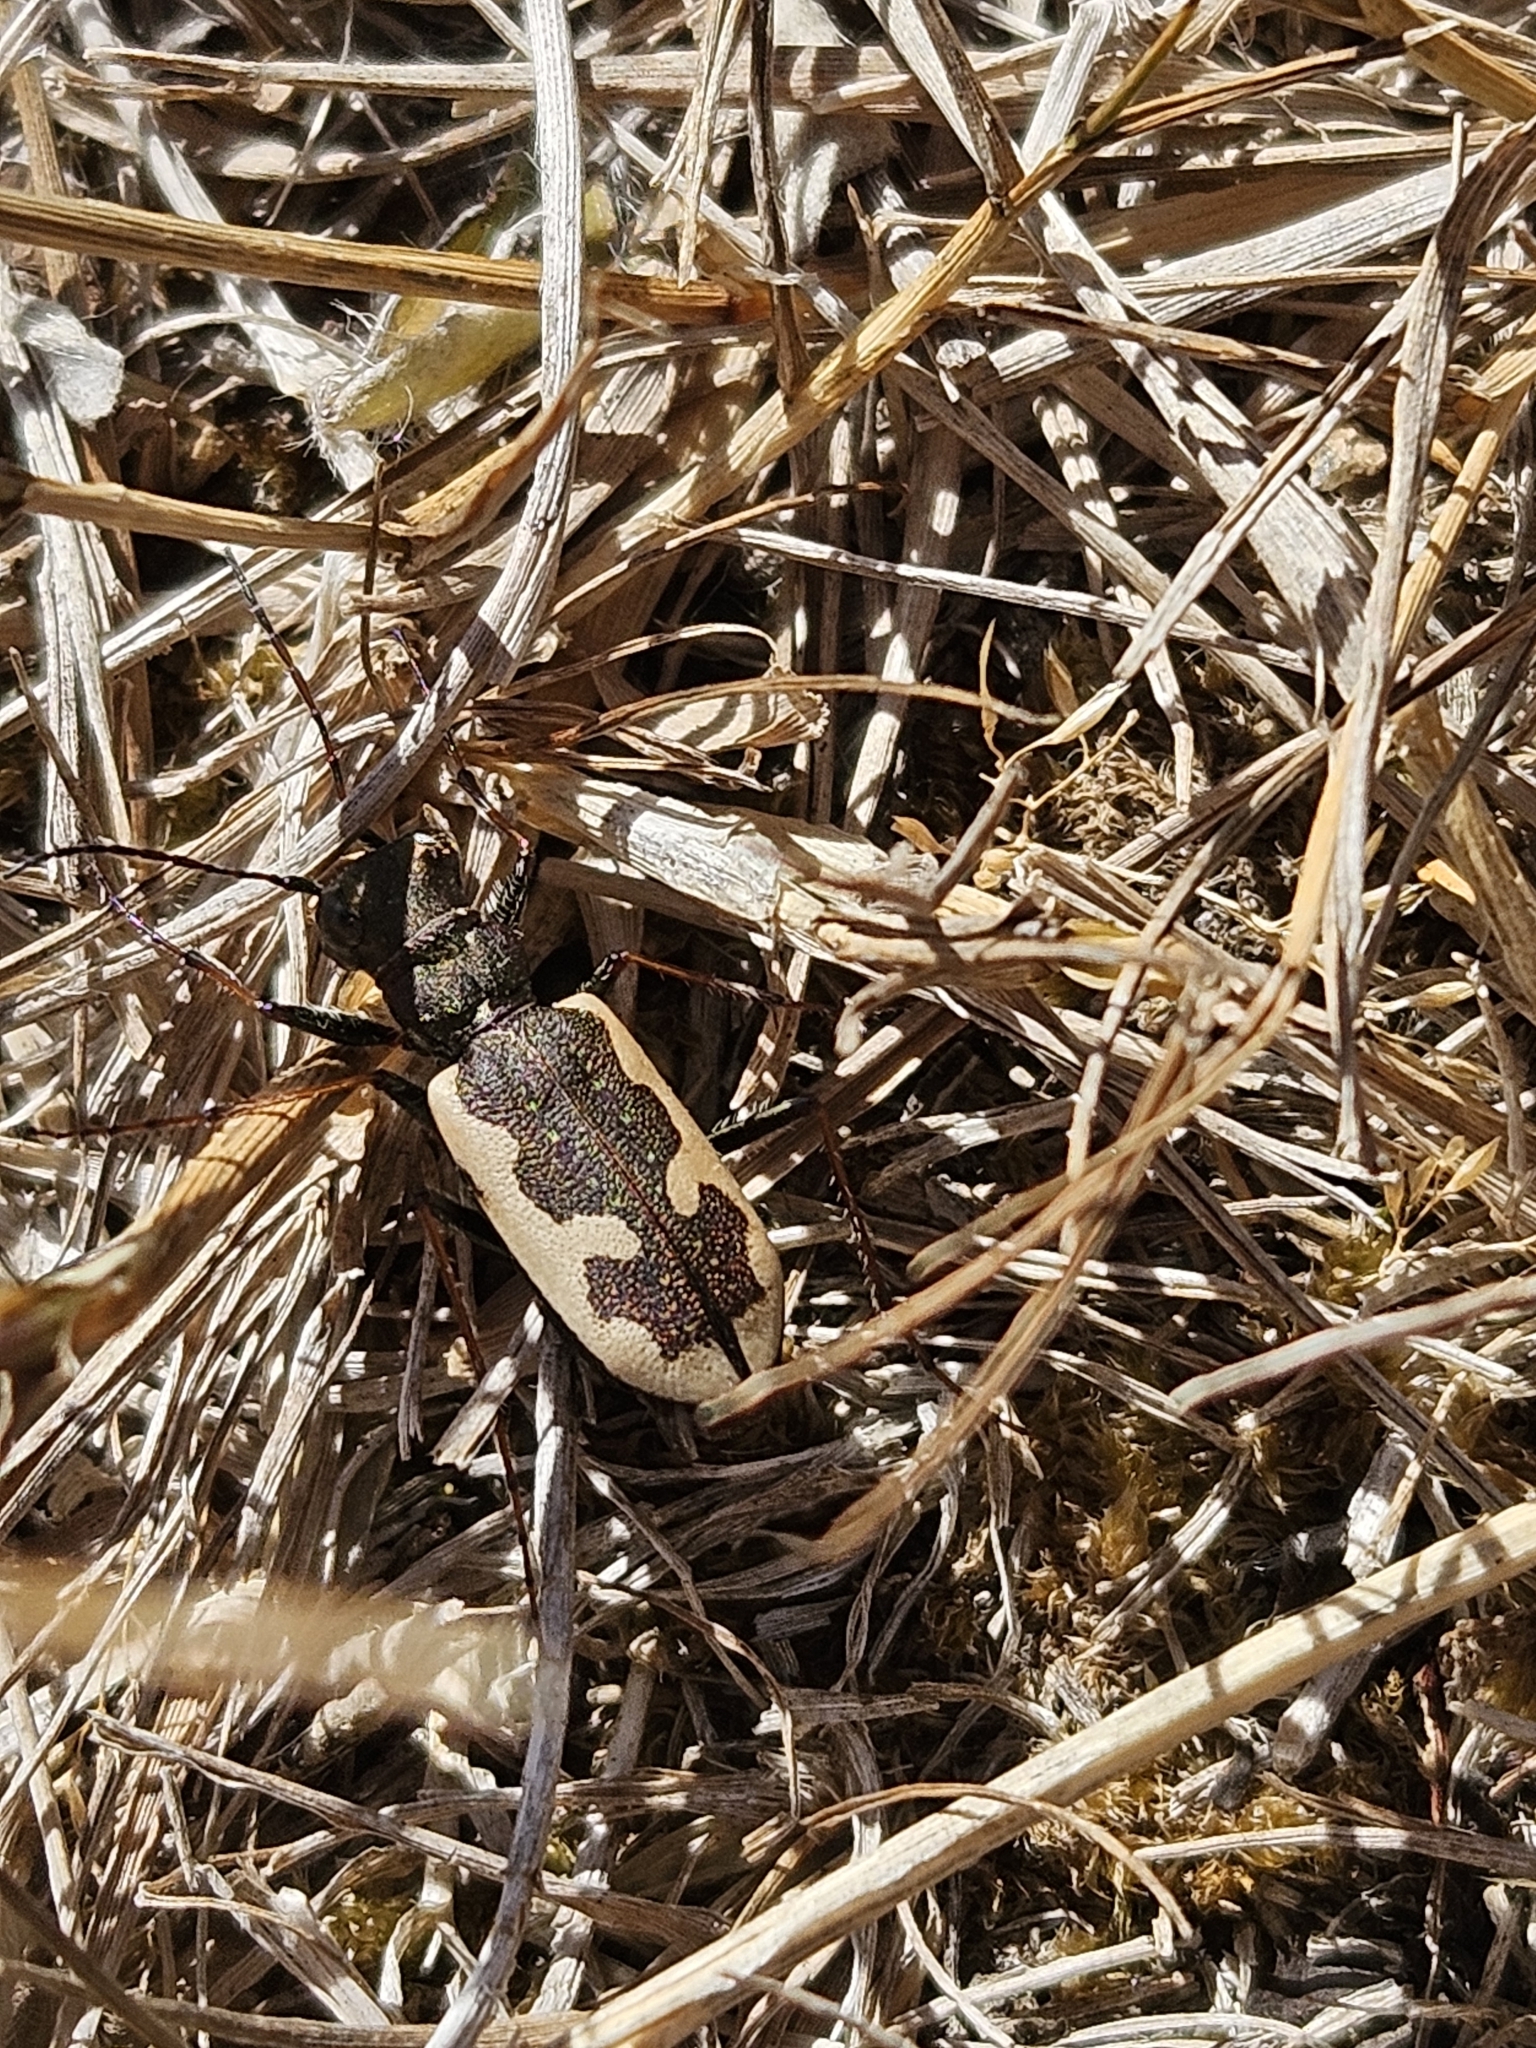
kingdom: Animalia
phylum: Arthropoda
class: Insecta
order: Coleoptera
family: Carabidae
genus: Neocicindela
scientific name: Neocicindela latecincta
